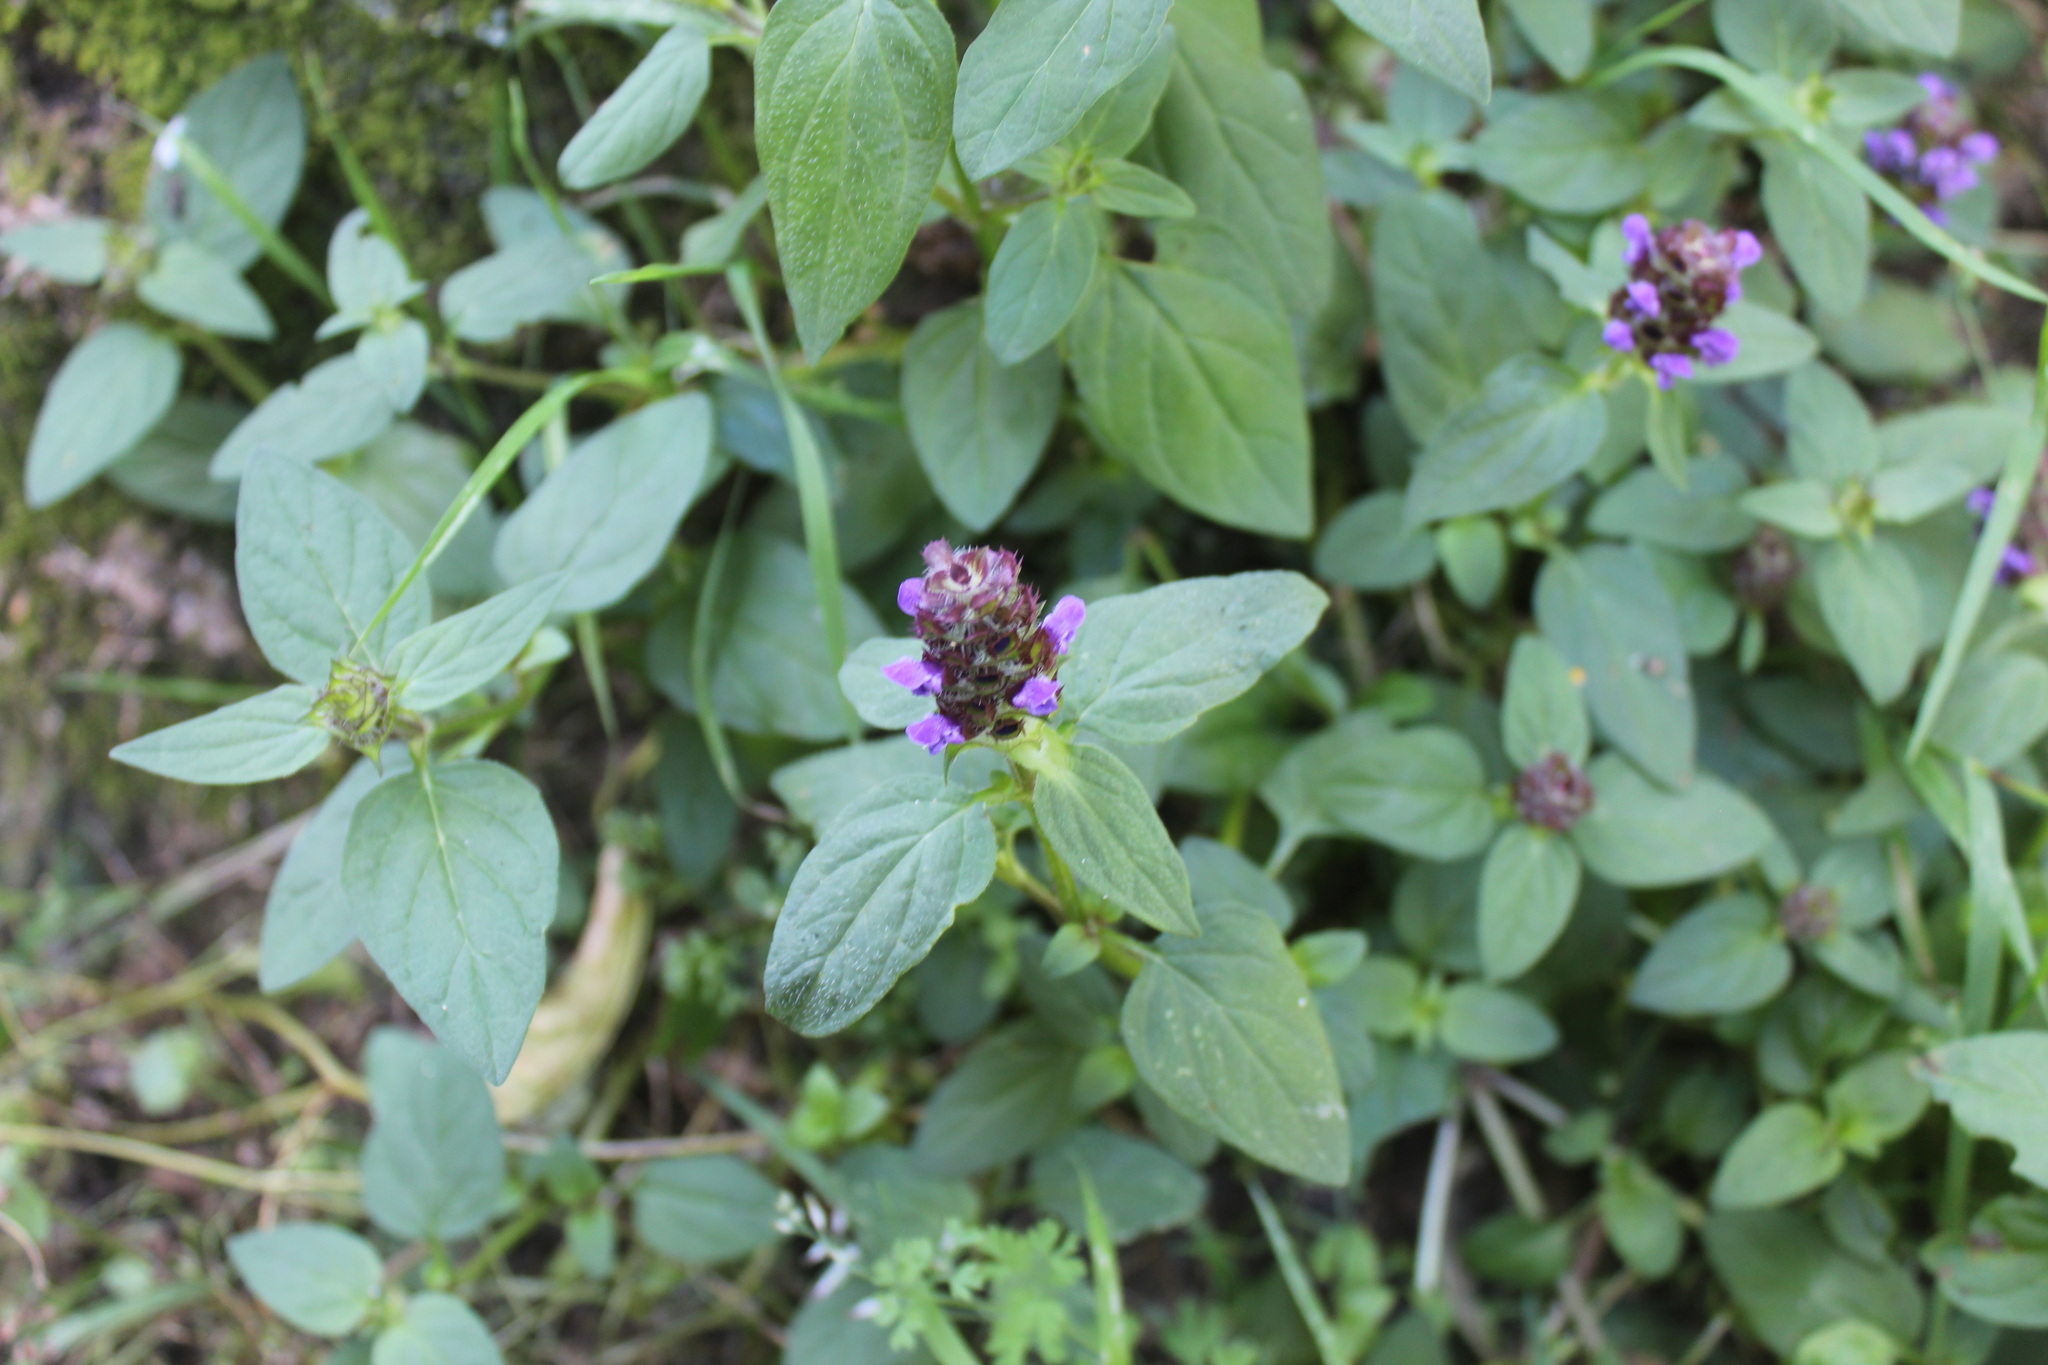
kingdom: Plantae
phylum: Tracheophyta
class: Magnoliopsida
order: Lamiales
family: Lamiaceae
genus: Prunella
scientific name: Prunella vulgaris
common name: Heal-all
